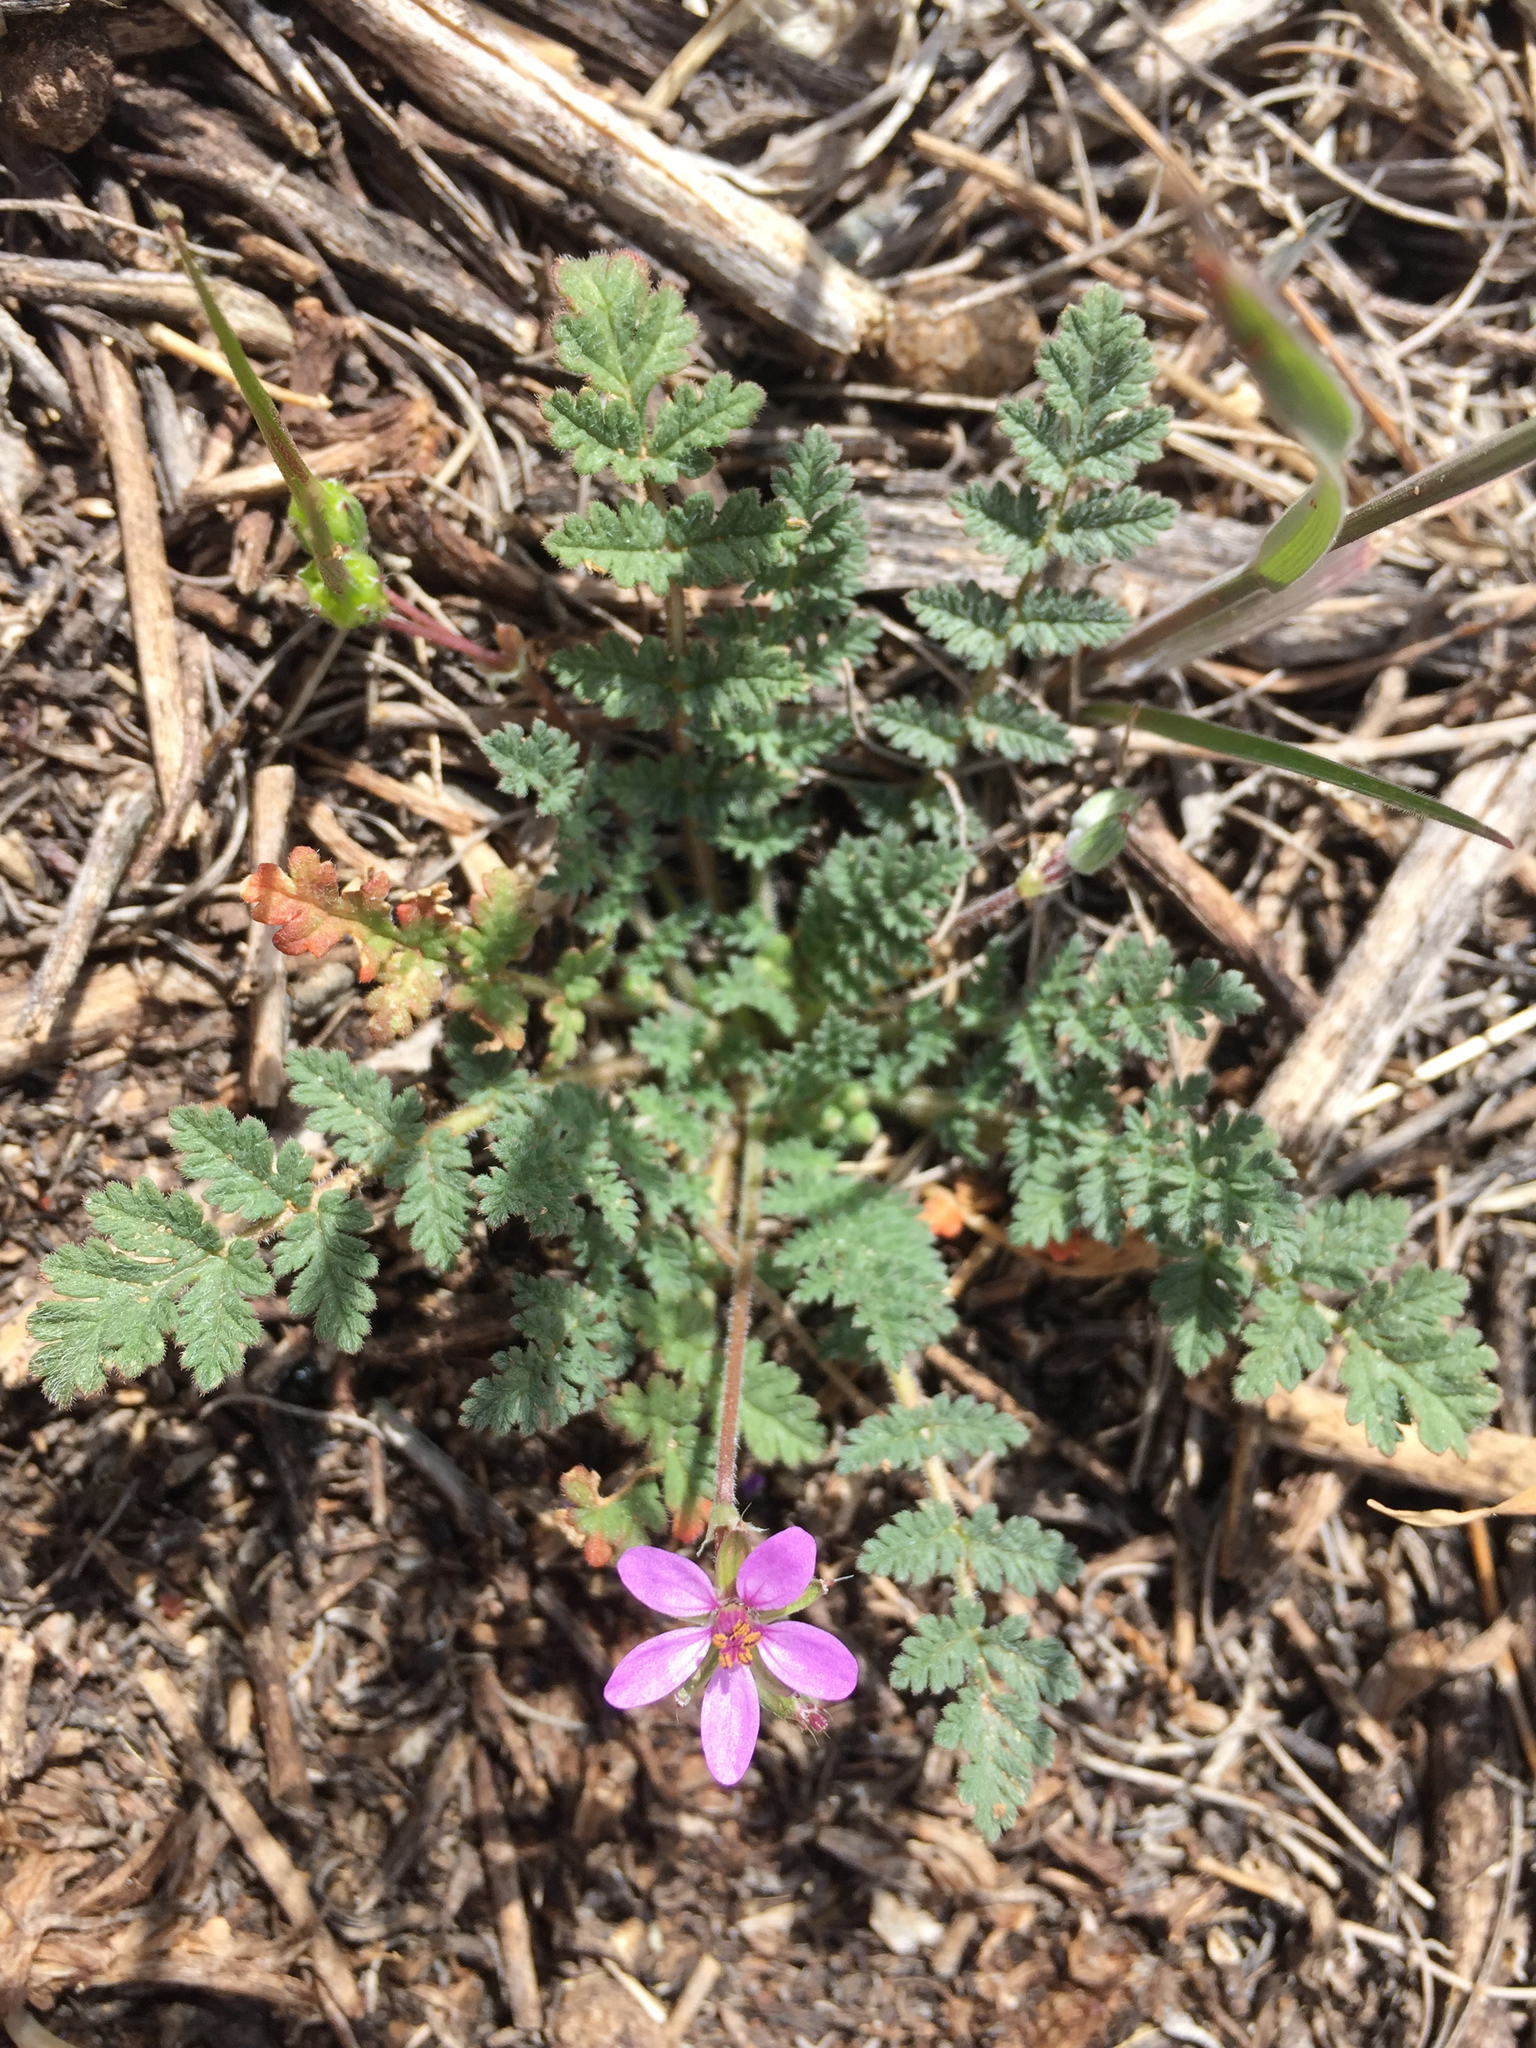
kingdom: Plantae
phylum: Tracheophyta
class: Magnoliopsida
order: Geraniales
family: Geraniaceae
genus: Erodium
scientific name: Erodium cicutarium
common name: Common stork's-bill
